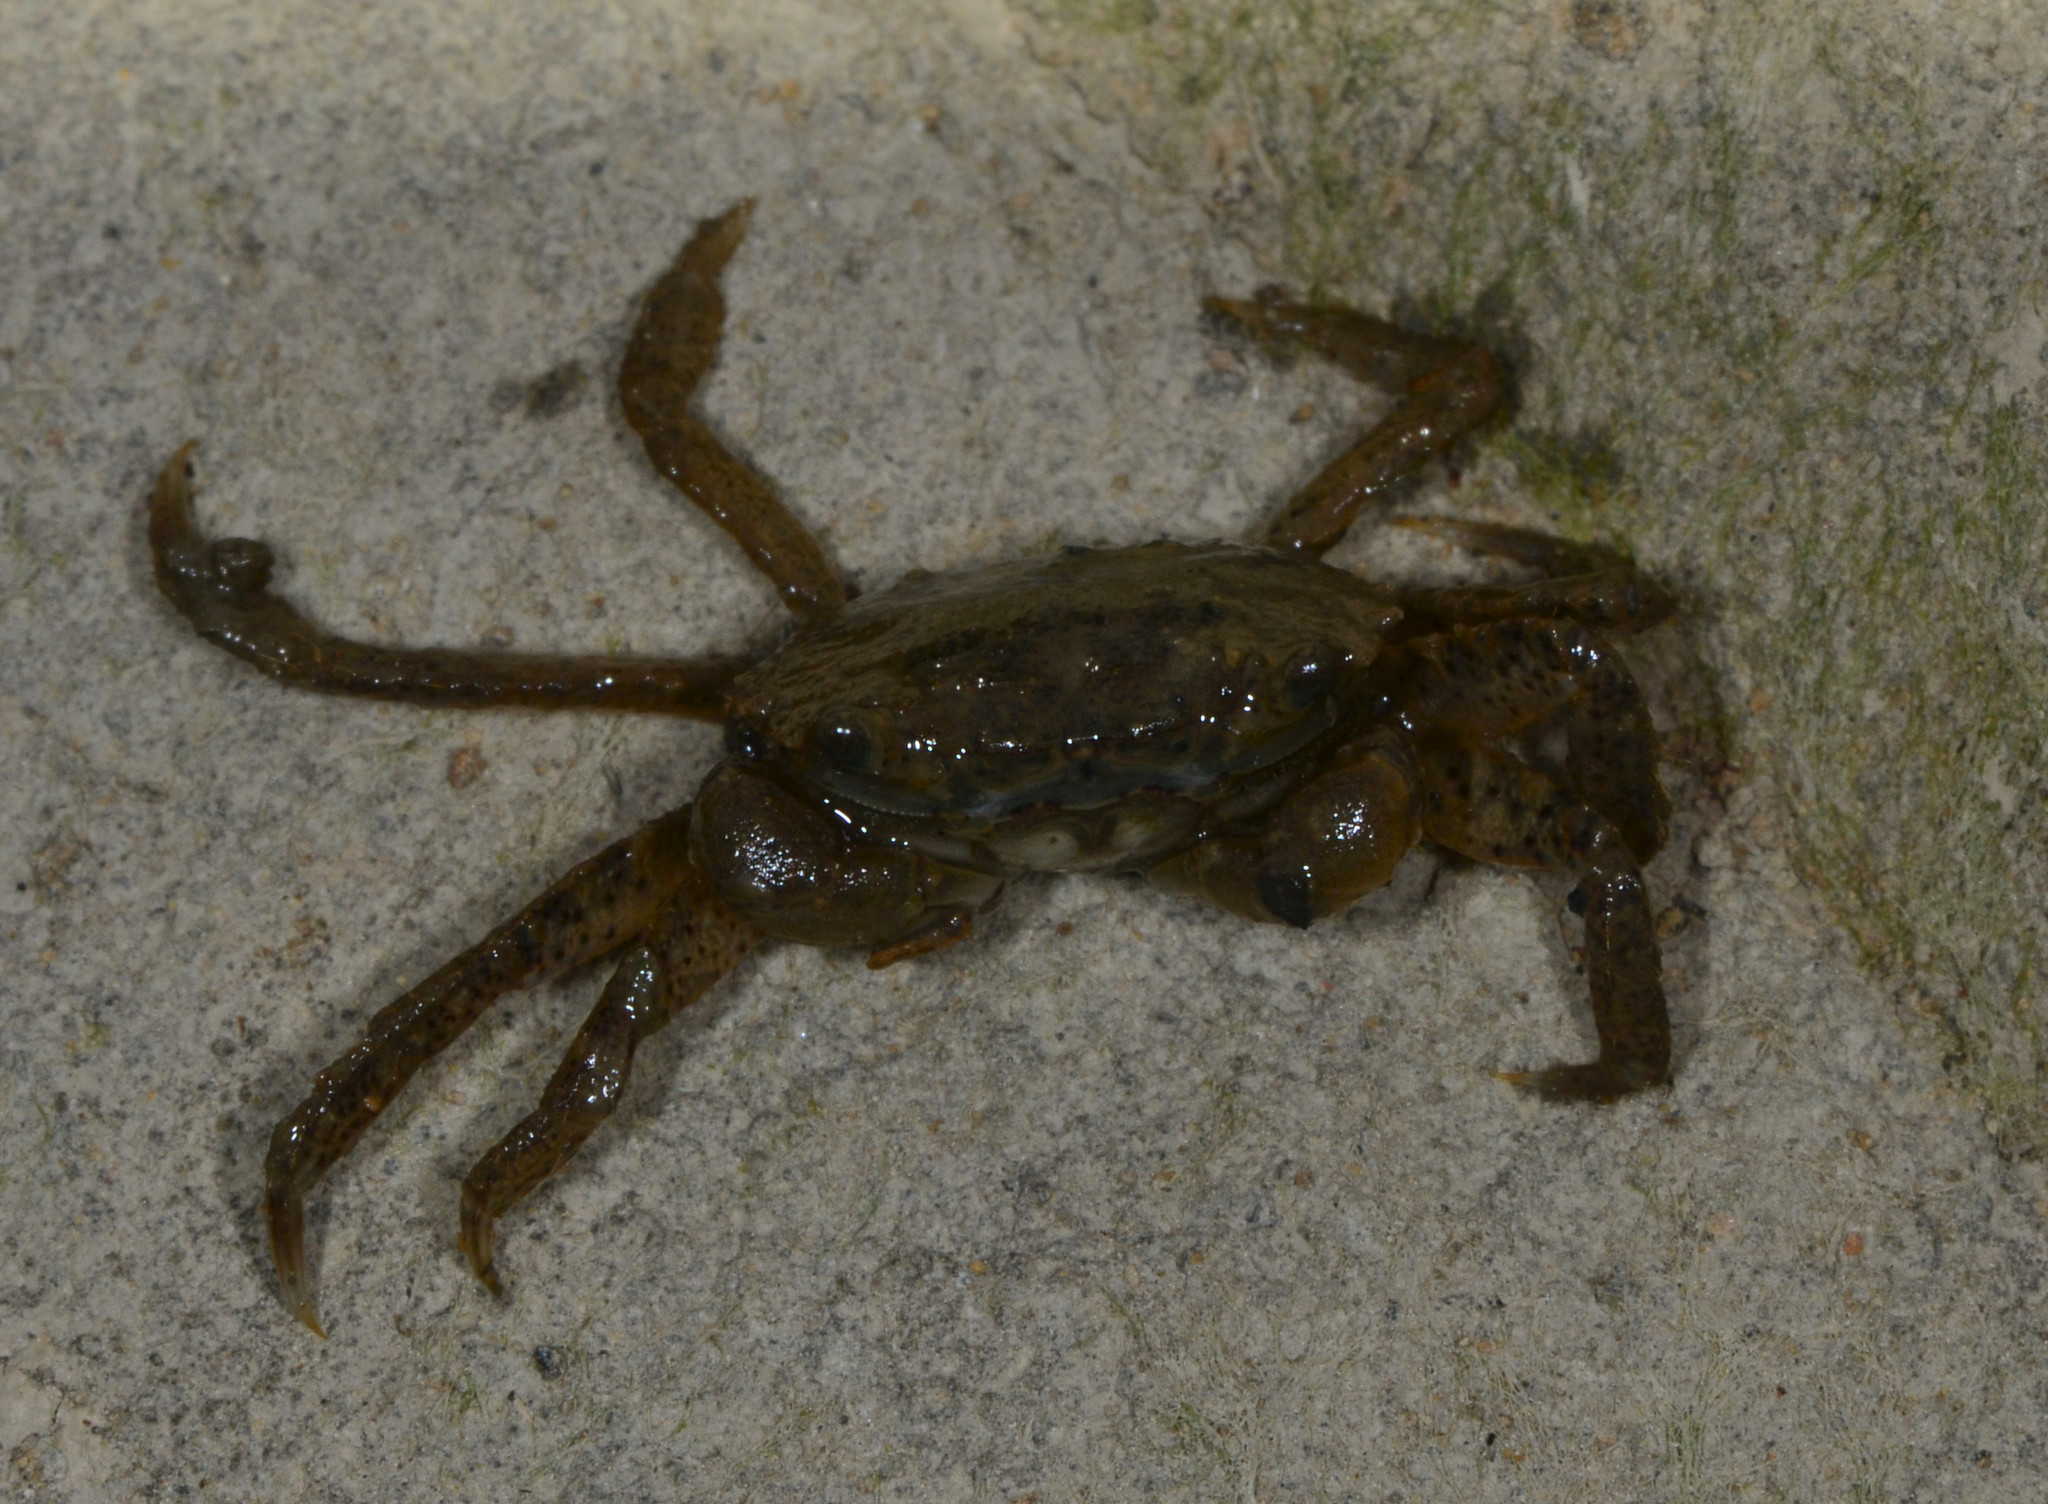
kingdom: Animalia
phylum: Arthropoda
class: Malacostraca
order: Decapoda
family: Varunidae
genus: Hemigrapsus
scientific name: Hemigrapsus oregonensis
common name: Yellow shore crab
